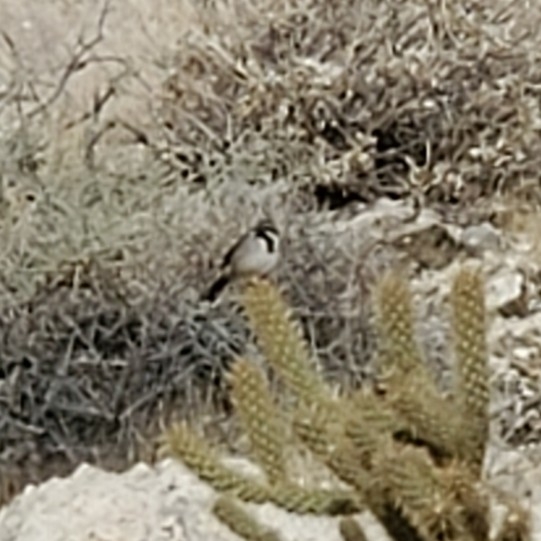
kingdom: Animalia
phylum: Chordata
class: Aves
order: Passeriformes
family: Passerellidae
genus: Amphispiza
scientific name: Amphispiza bilineata
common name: Black-throated sparrow
